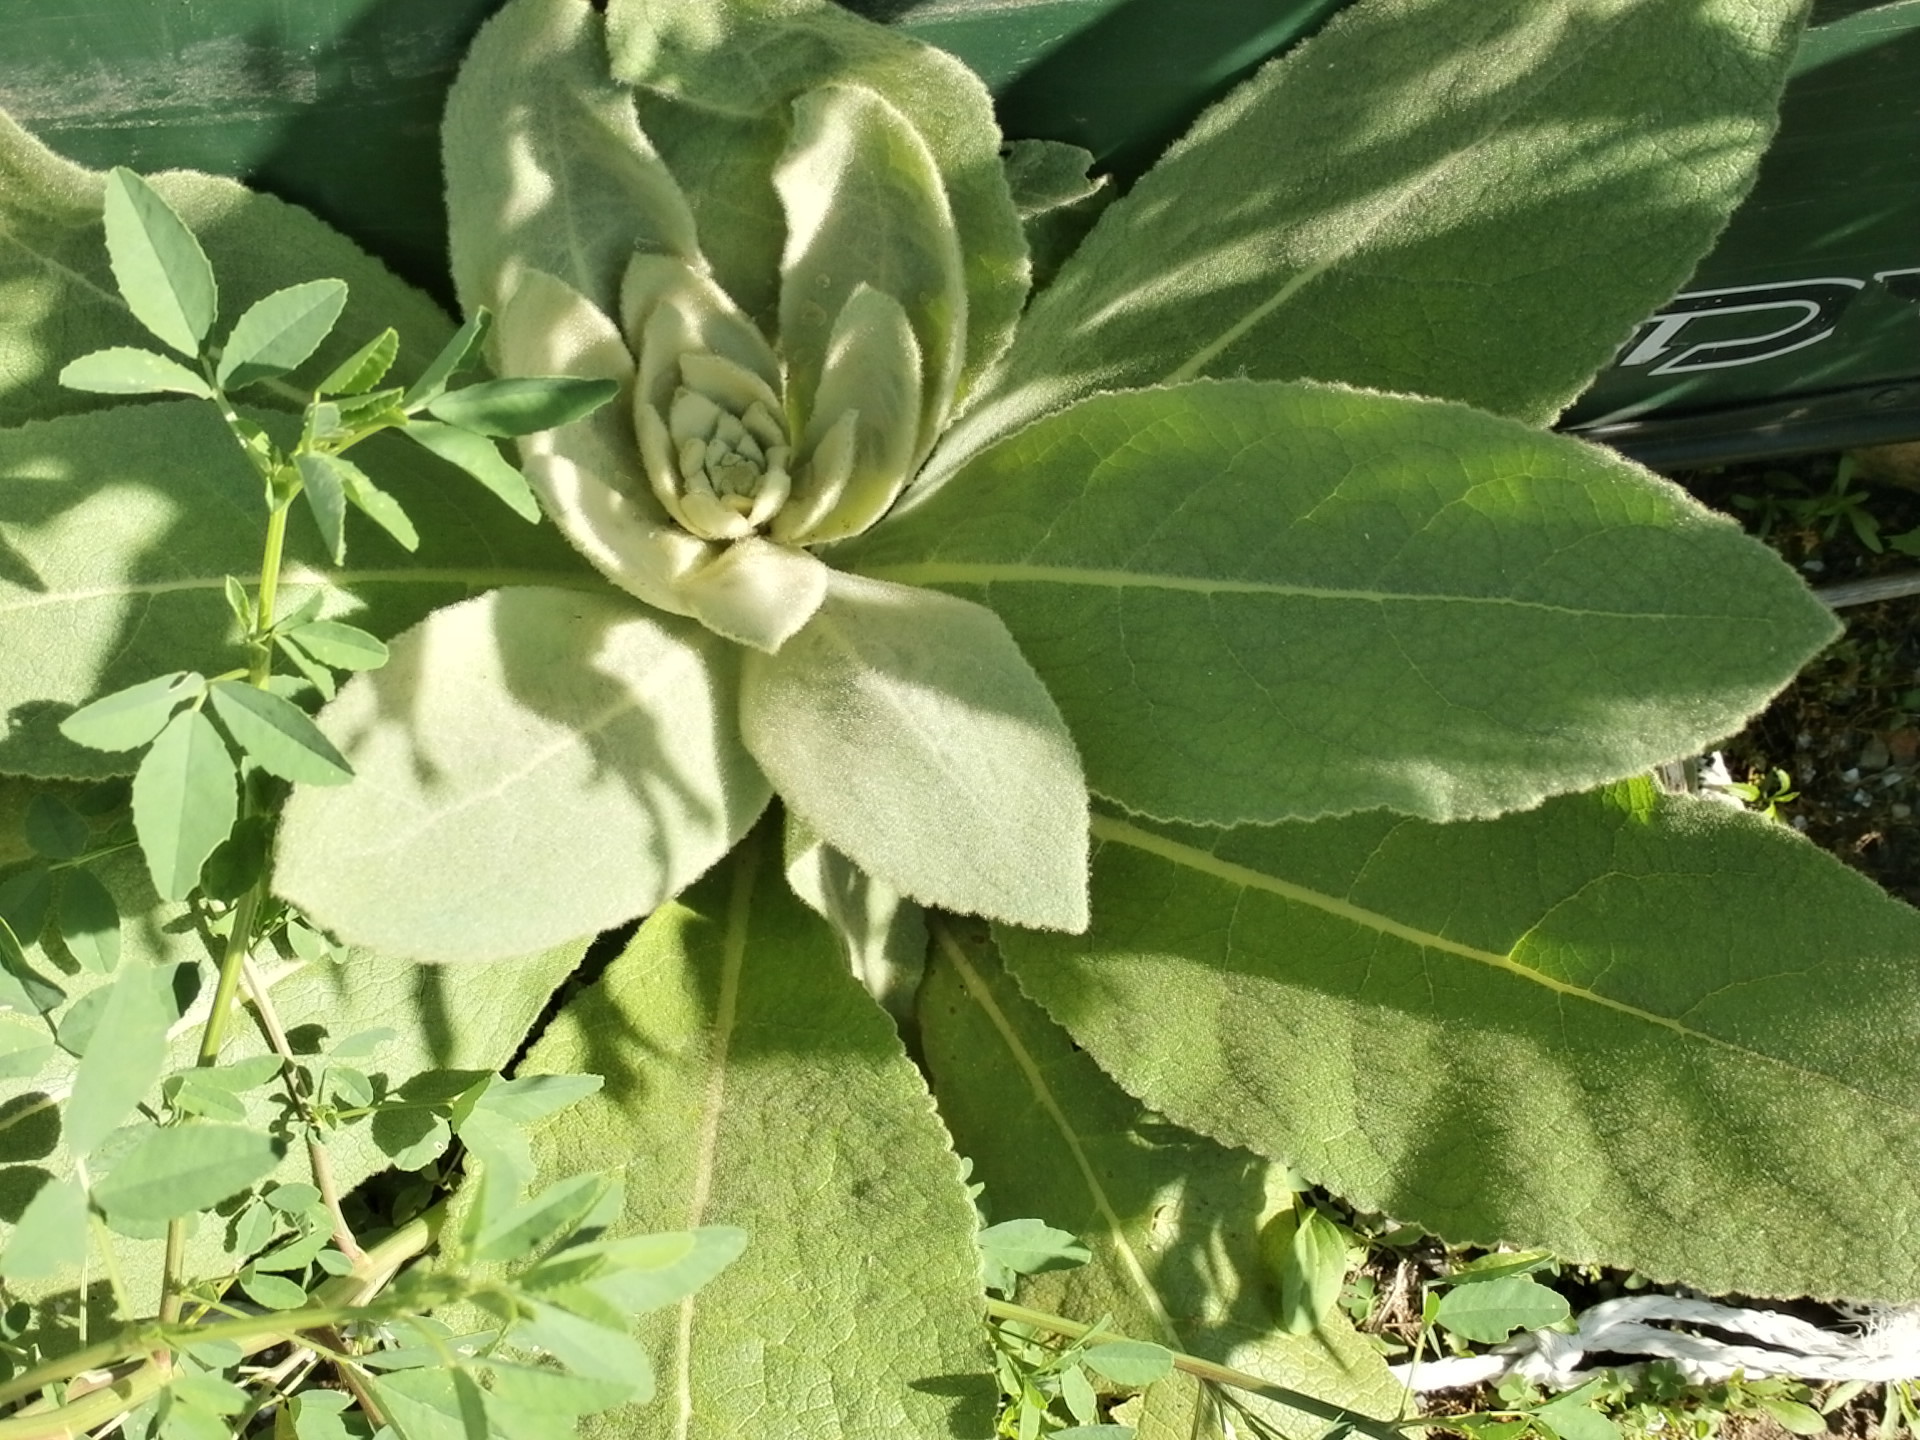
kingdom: Plantae
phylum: Tracheophyta
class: Magnoliopsida
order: Lamiales
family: Scrophulariaceae
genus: Verbascum
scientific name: Verbascum thapsus
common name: Common mullein
